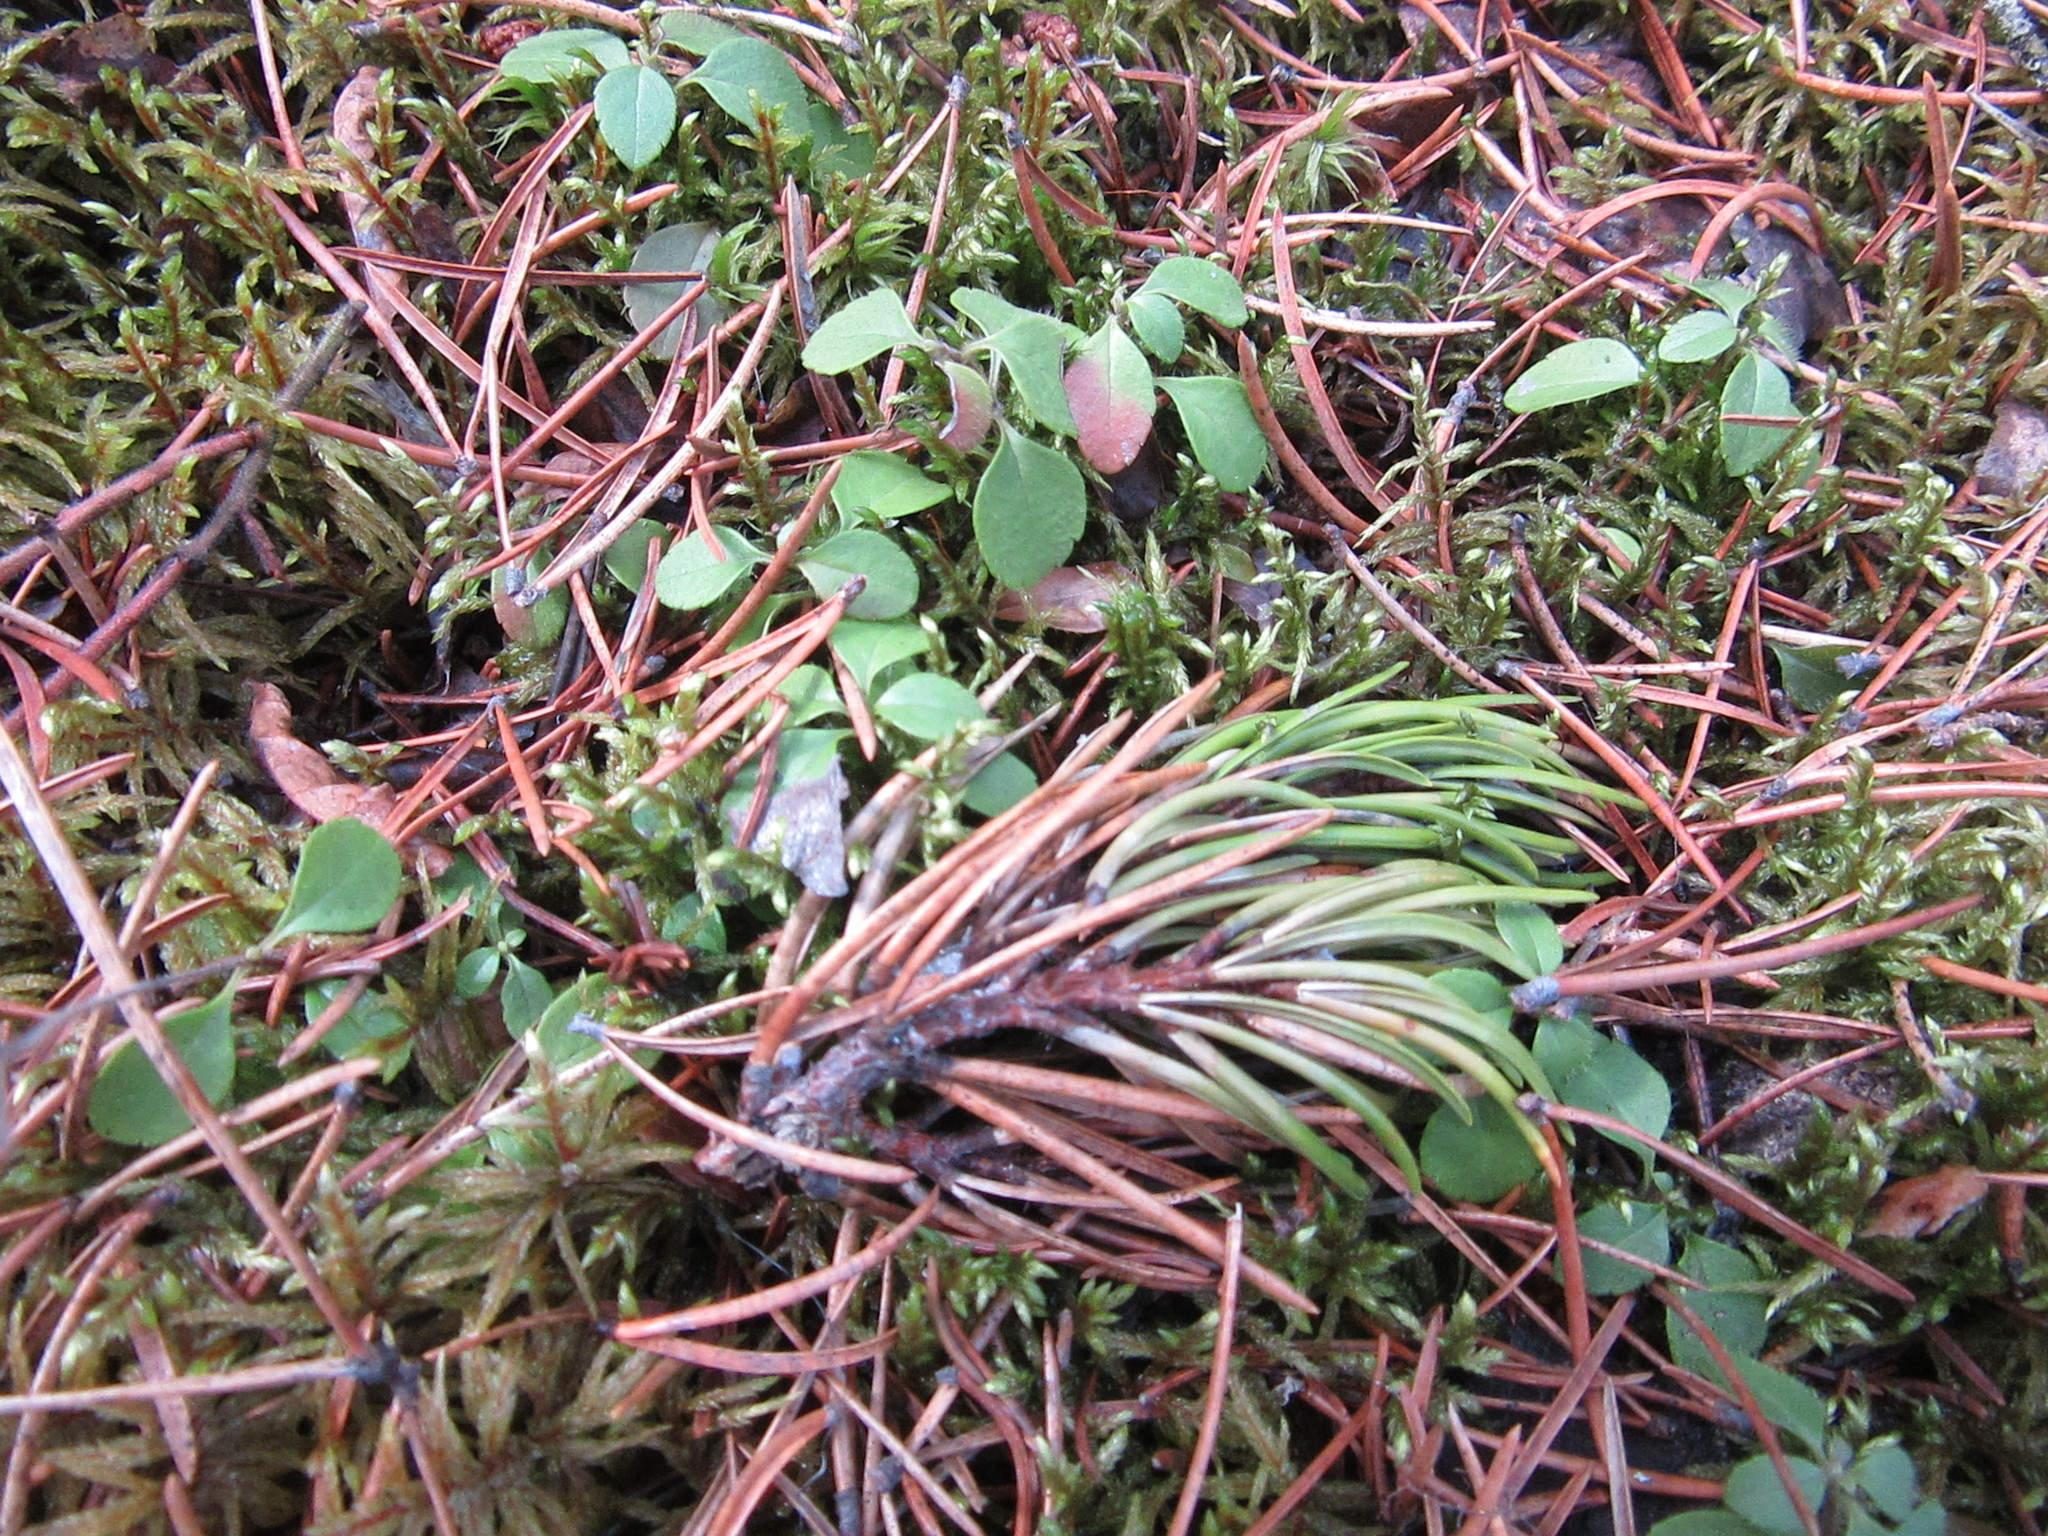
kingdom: Plantae
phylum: Tracheophyta
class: Magnoliopsida
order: Dipsacales
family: Caprifoliaceae
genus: Linnaea
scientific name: Linnaea borealis
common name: Twinflower
